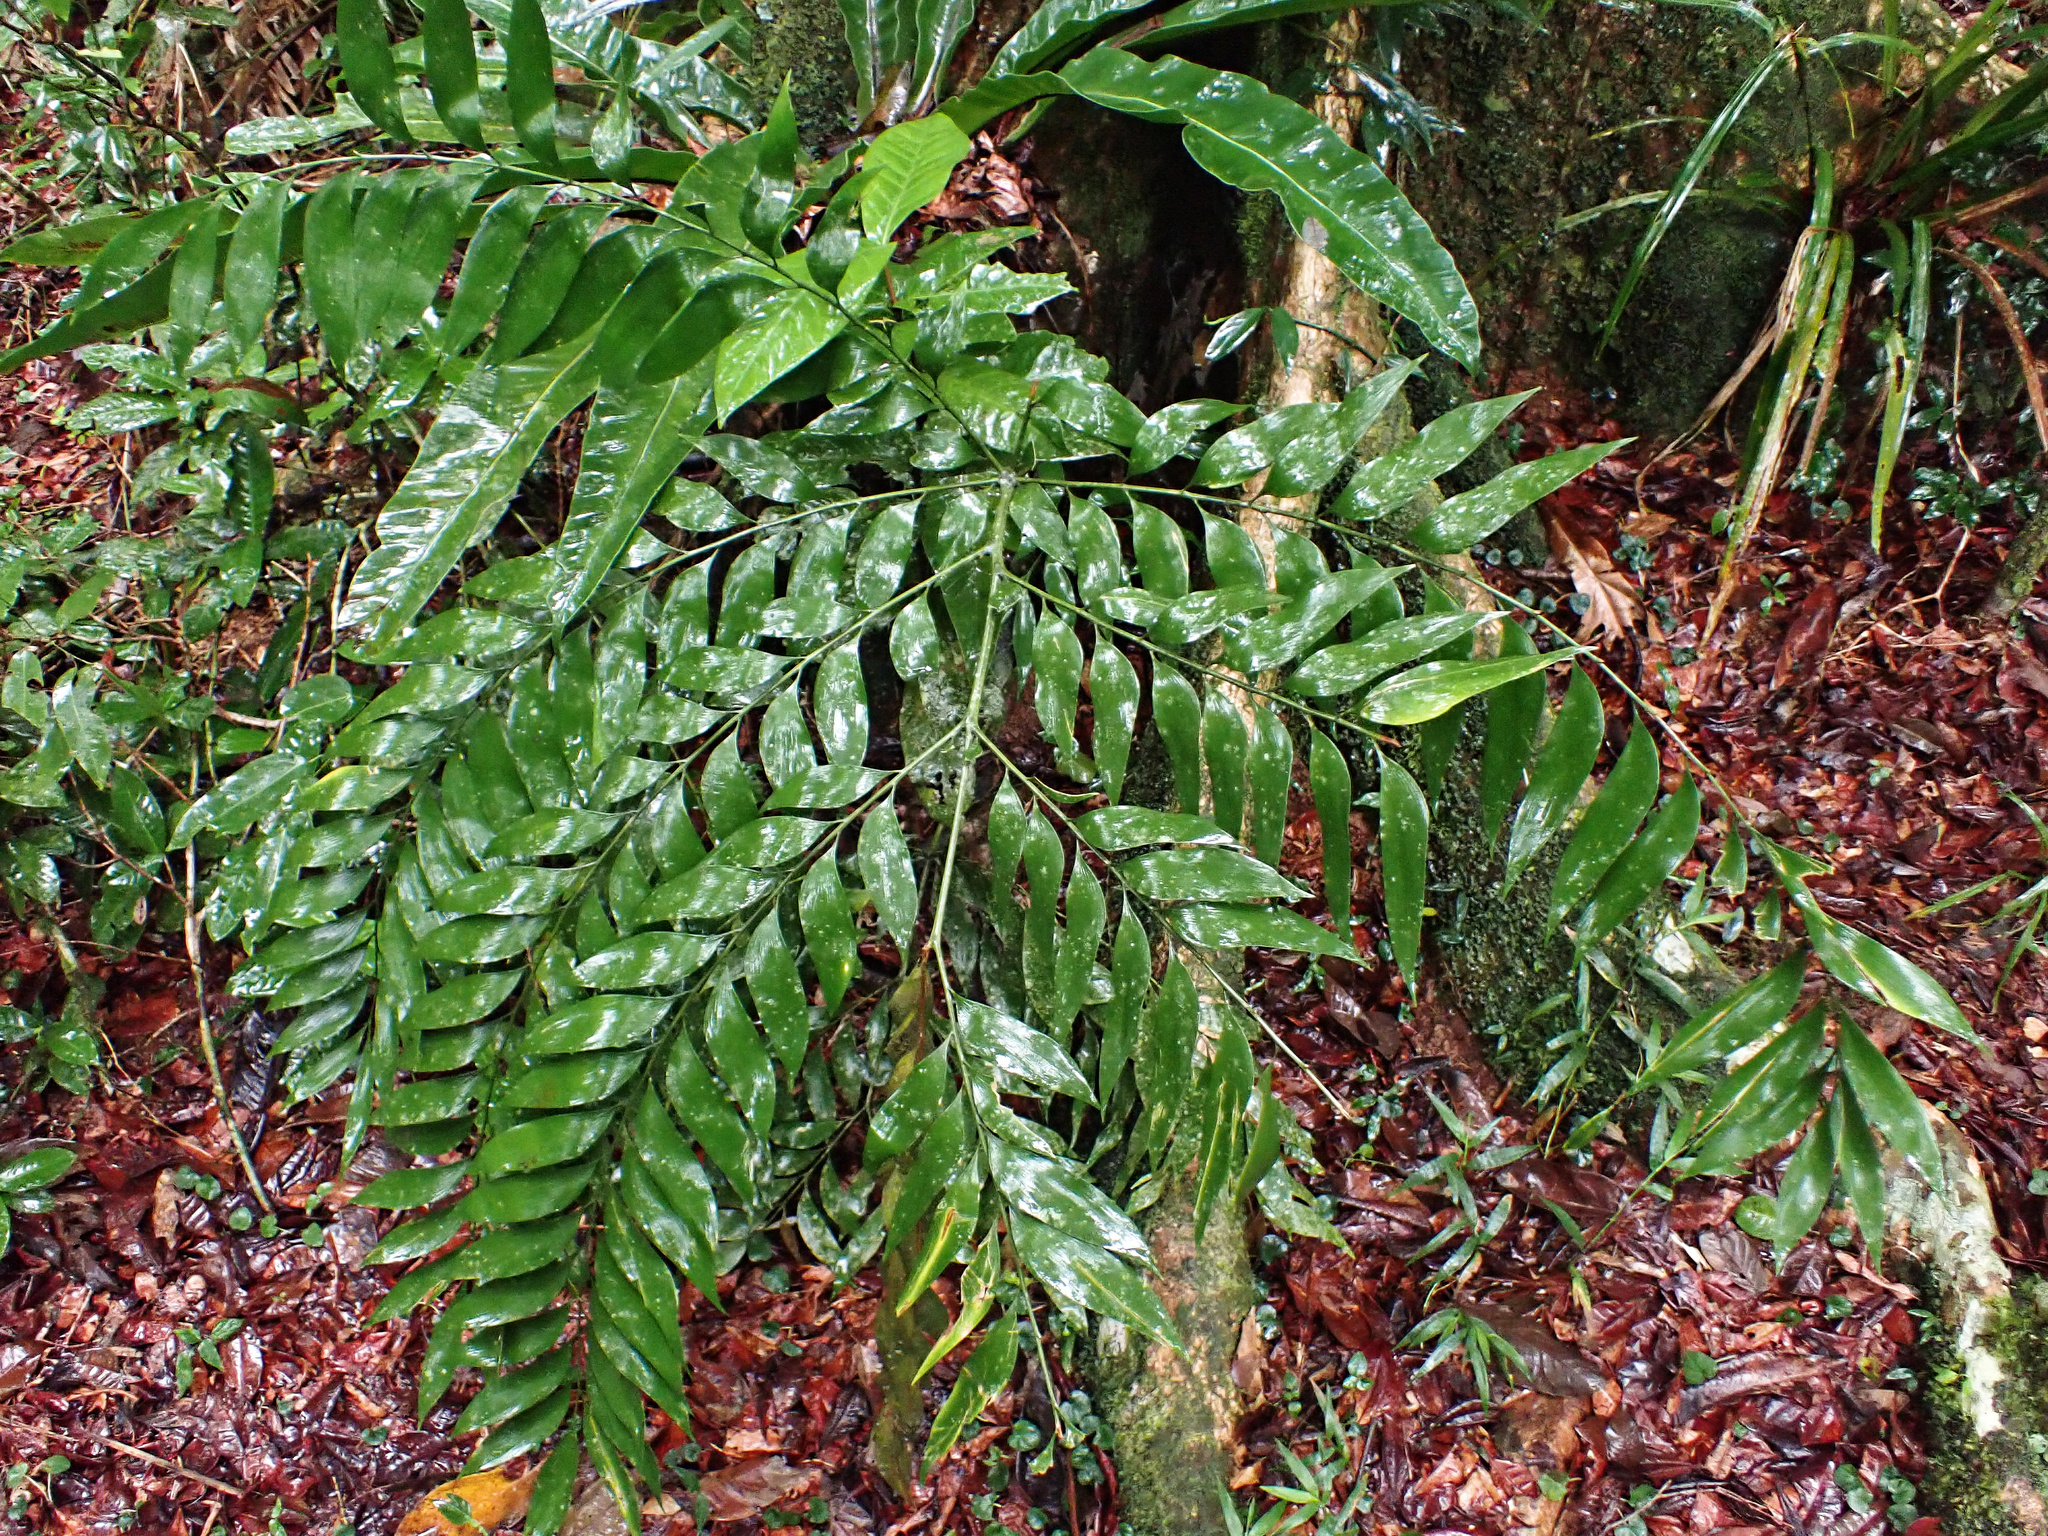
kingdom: Plantae
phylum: Tracheophyta
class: Cycadopsida
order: Cycadales
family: Zamiaceae
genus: Bowenia
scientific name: Bowenia spectabilis
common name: Zamia-fern
